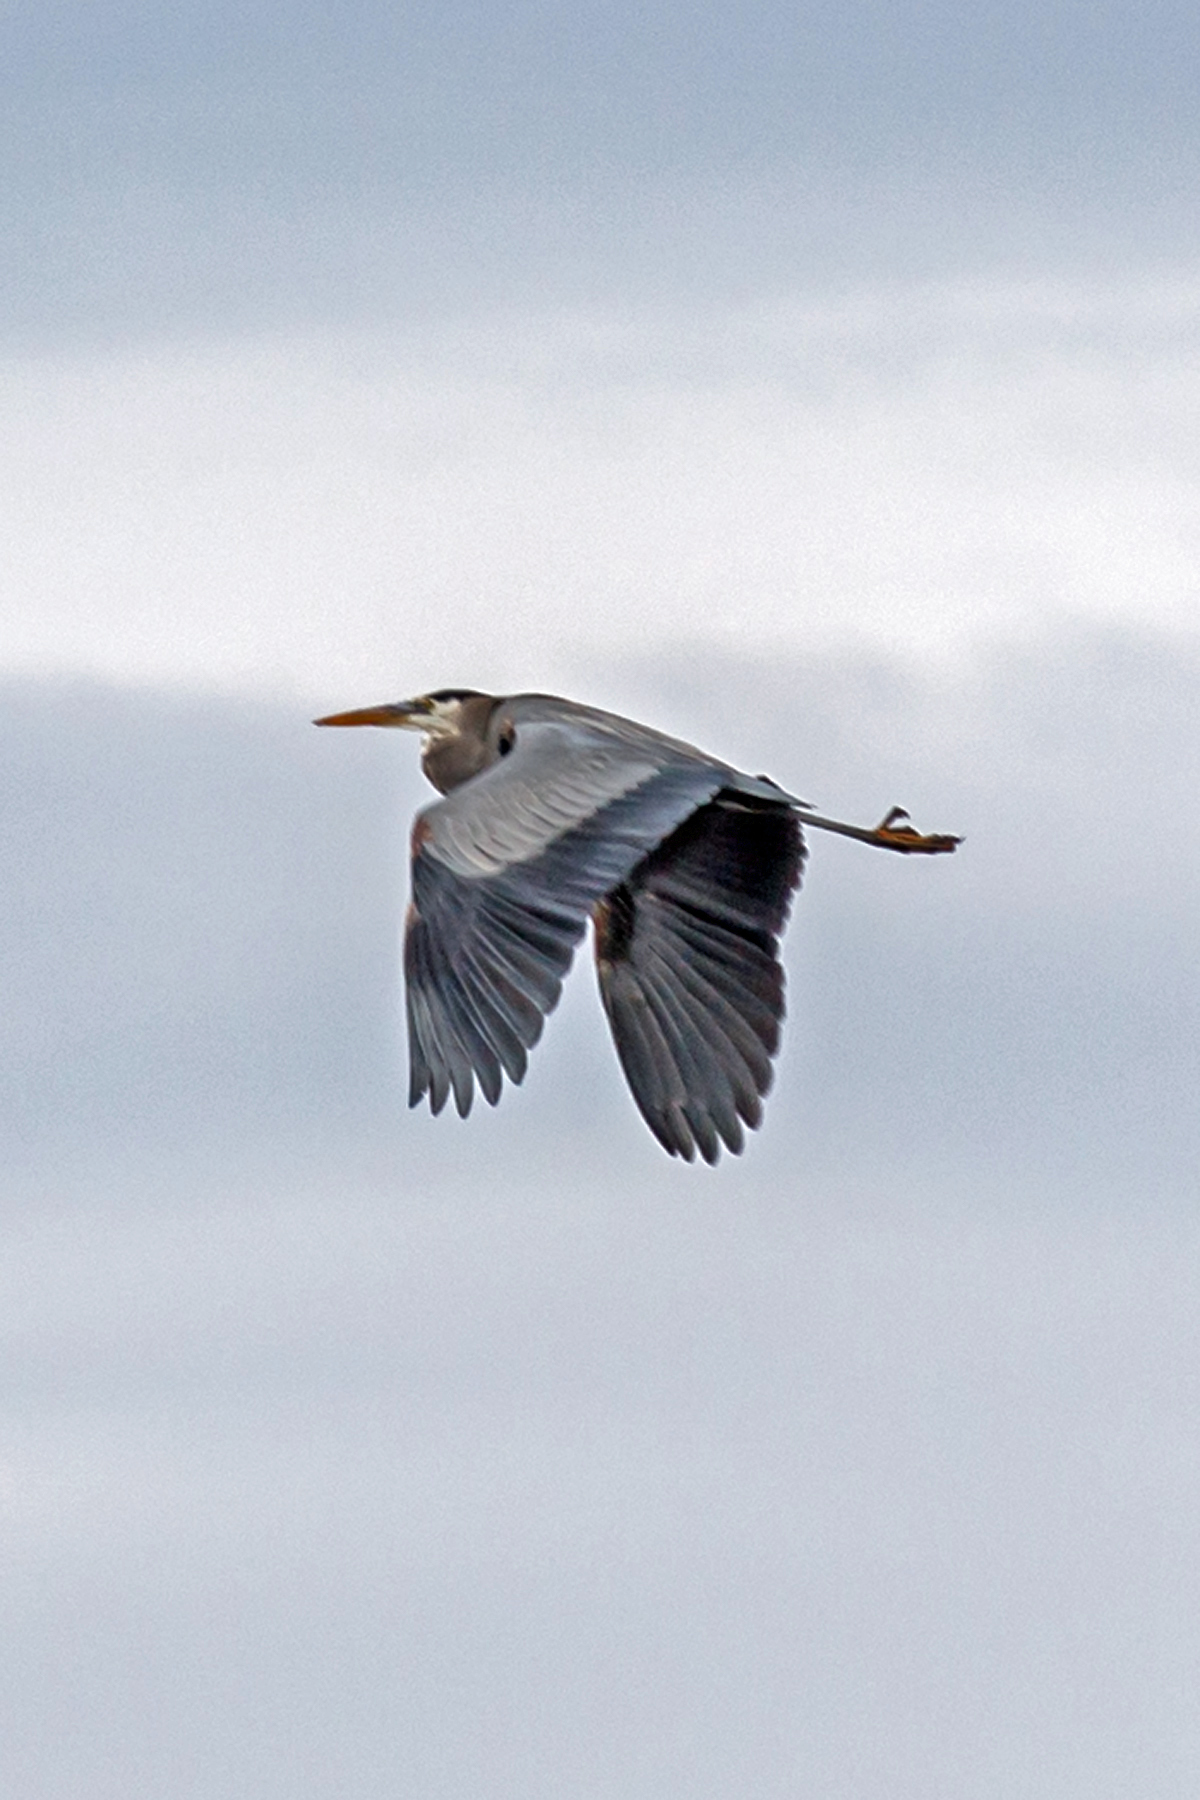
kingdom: Animalia
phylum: Chordata
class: Aves
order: Pelecaniformes
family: Ardeidae
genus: Ardea
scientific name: Ardea herodias
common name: Great blue heron
